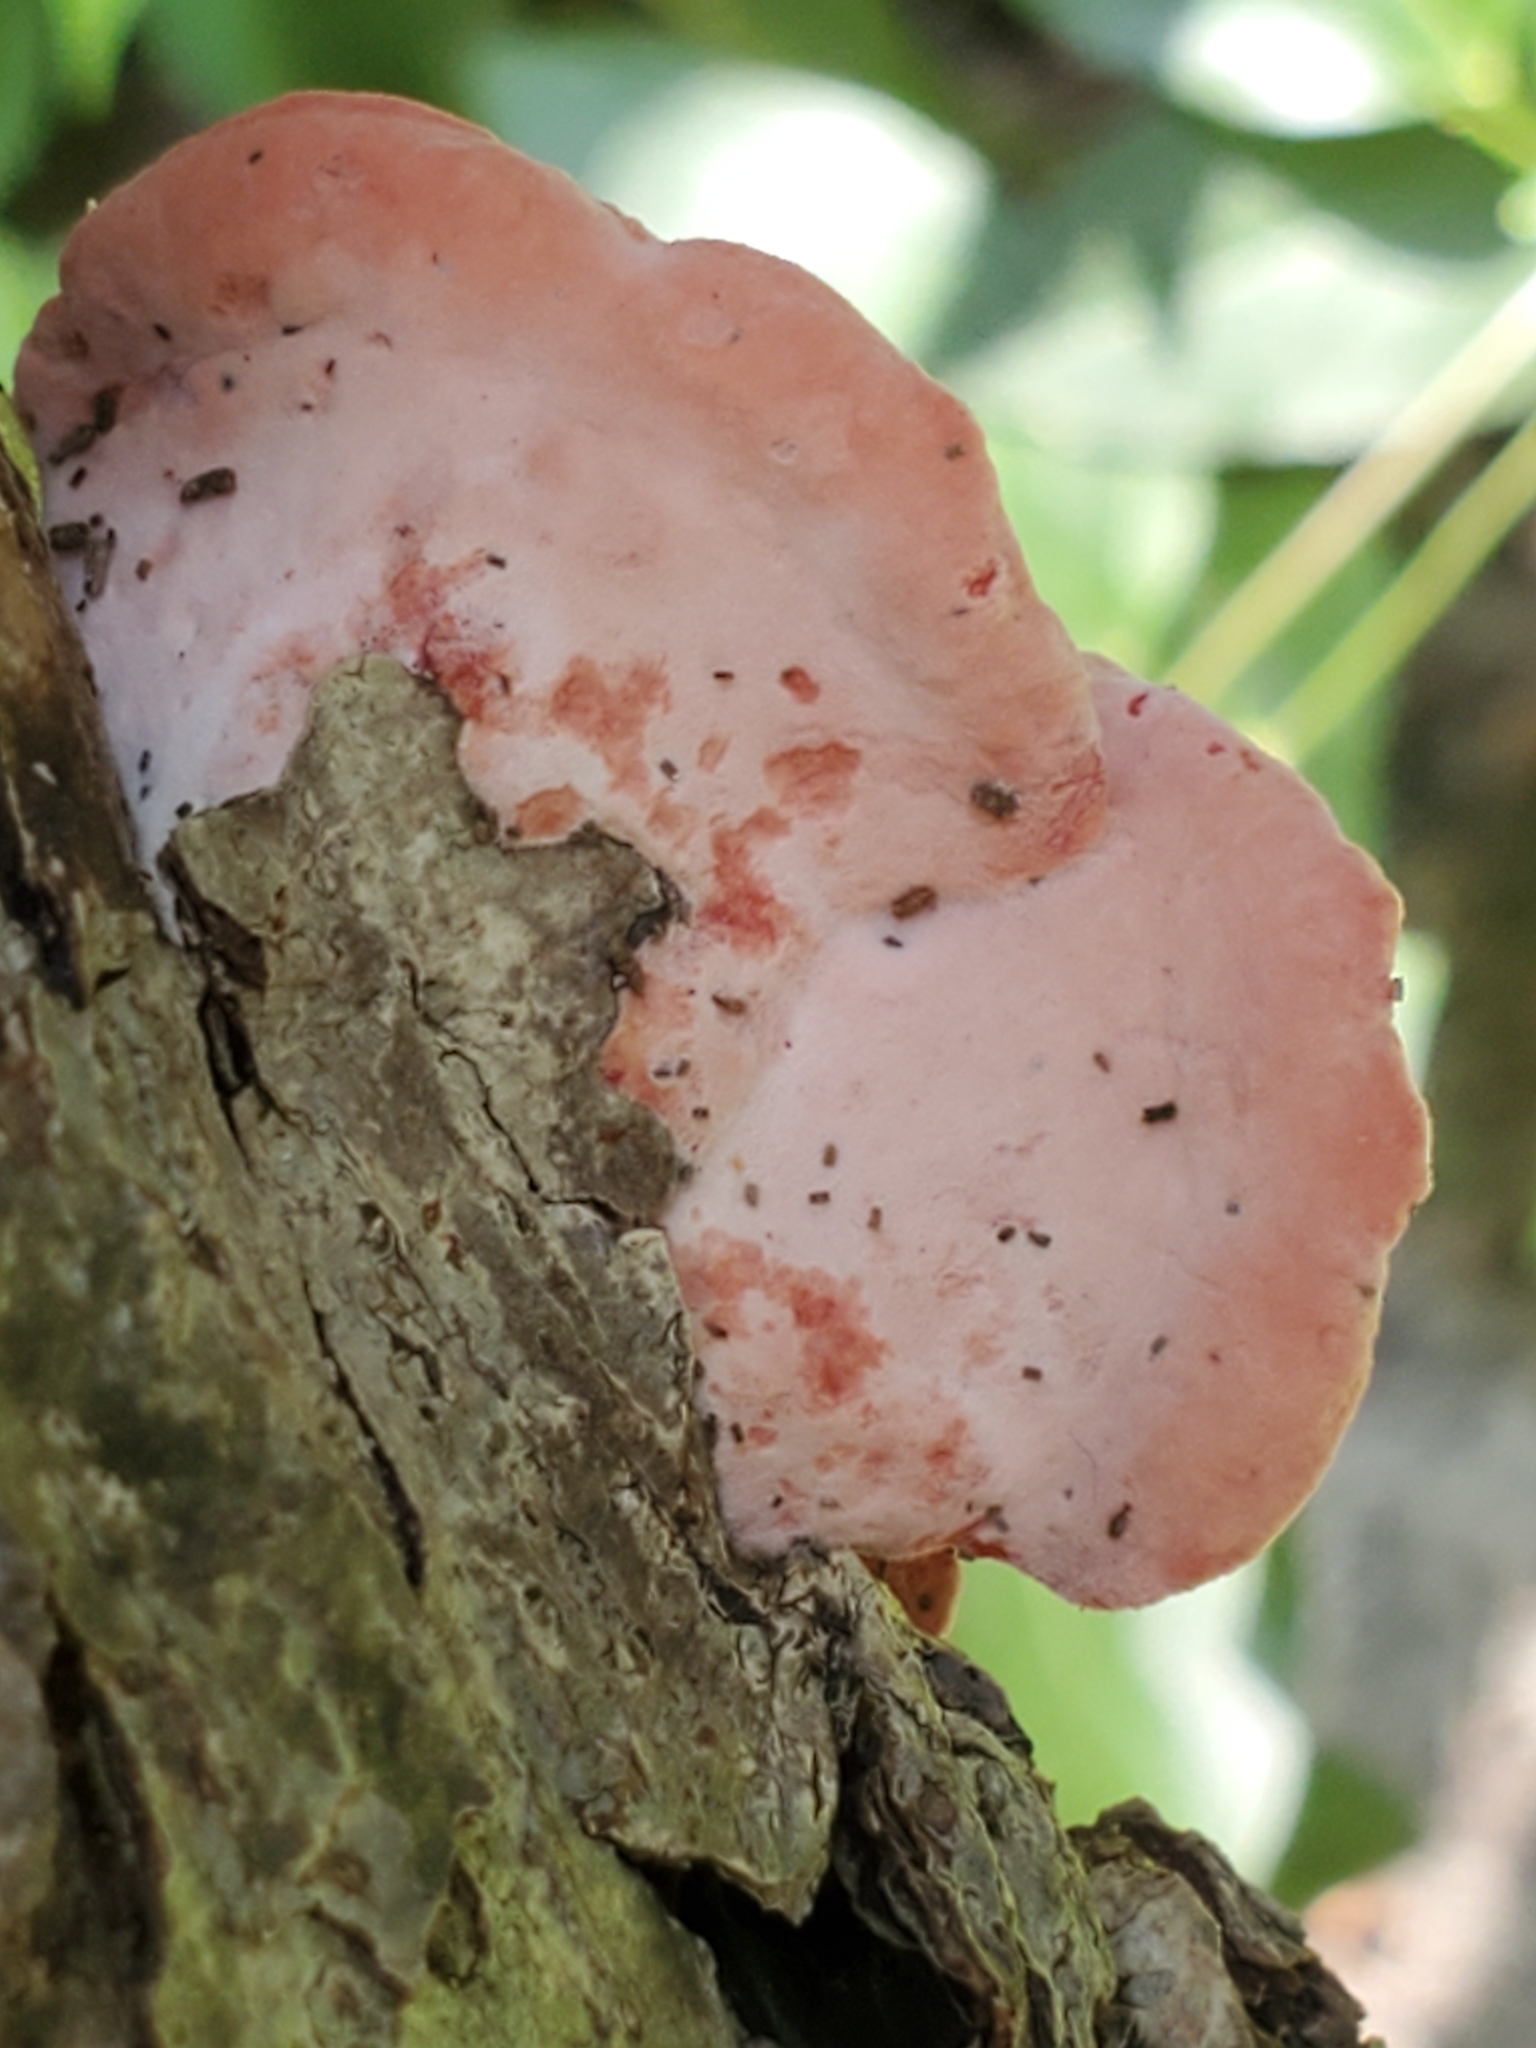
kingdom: Fungi
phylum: Basidiomycota
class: Agaricomycetes
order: Polyporales
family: Irpicaceae
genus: Byssomerulius
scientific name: Byssomerulius incarnatus
